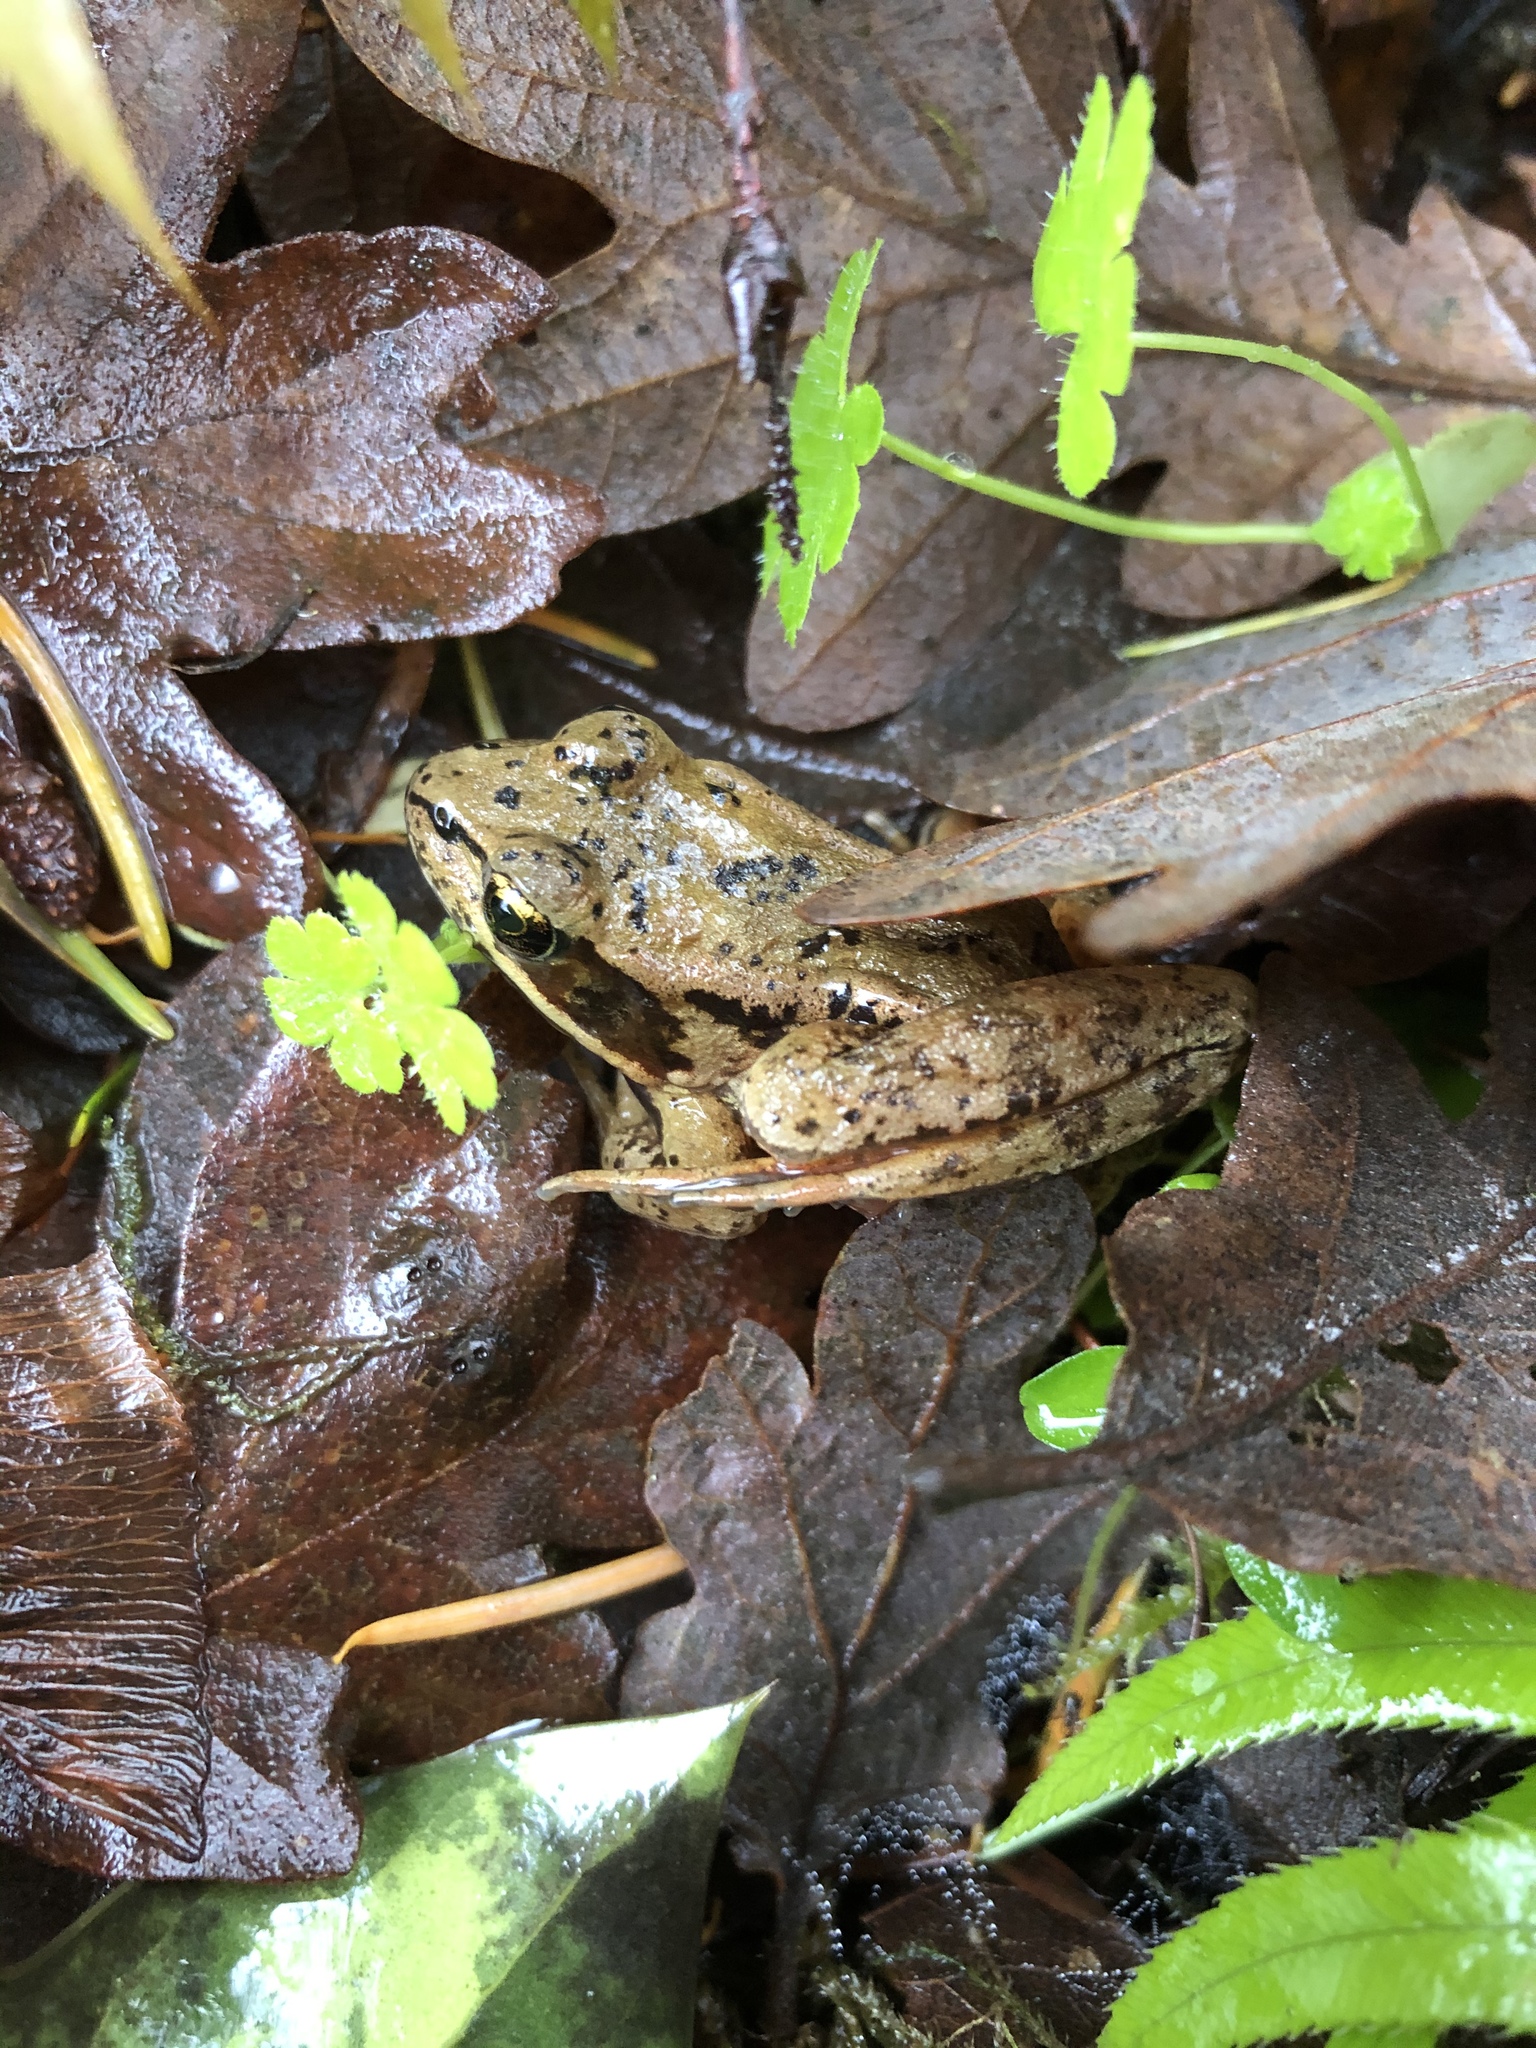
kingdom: Animalia
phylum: Chordata
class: Amphibia
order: Anura
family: Ranidae
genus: Rana
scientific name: Rana aurora
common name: Red-legged frog
